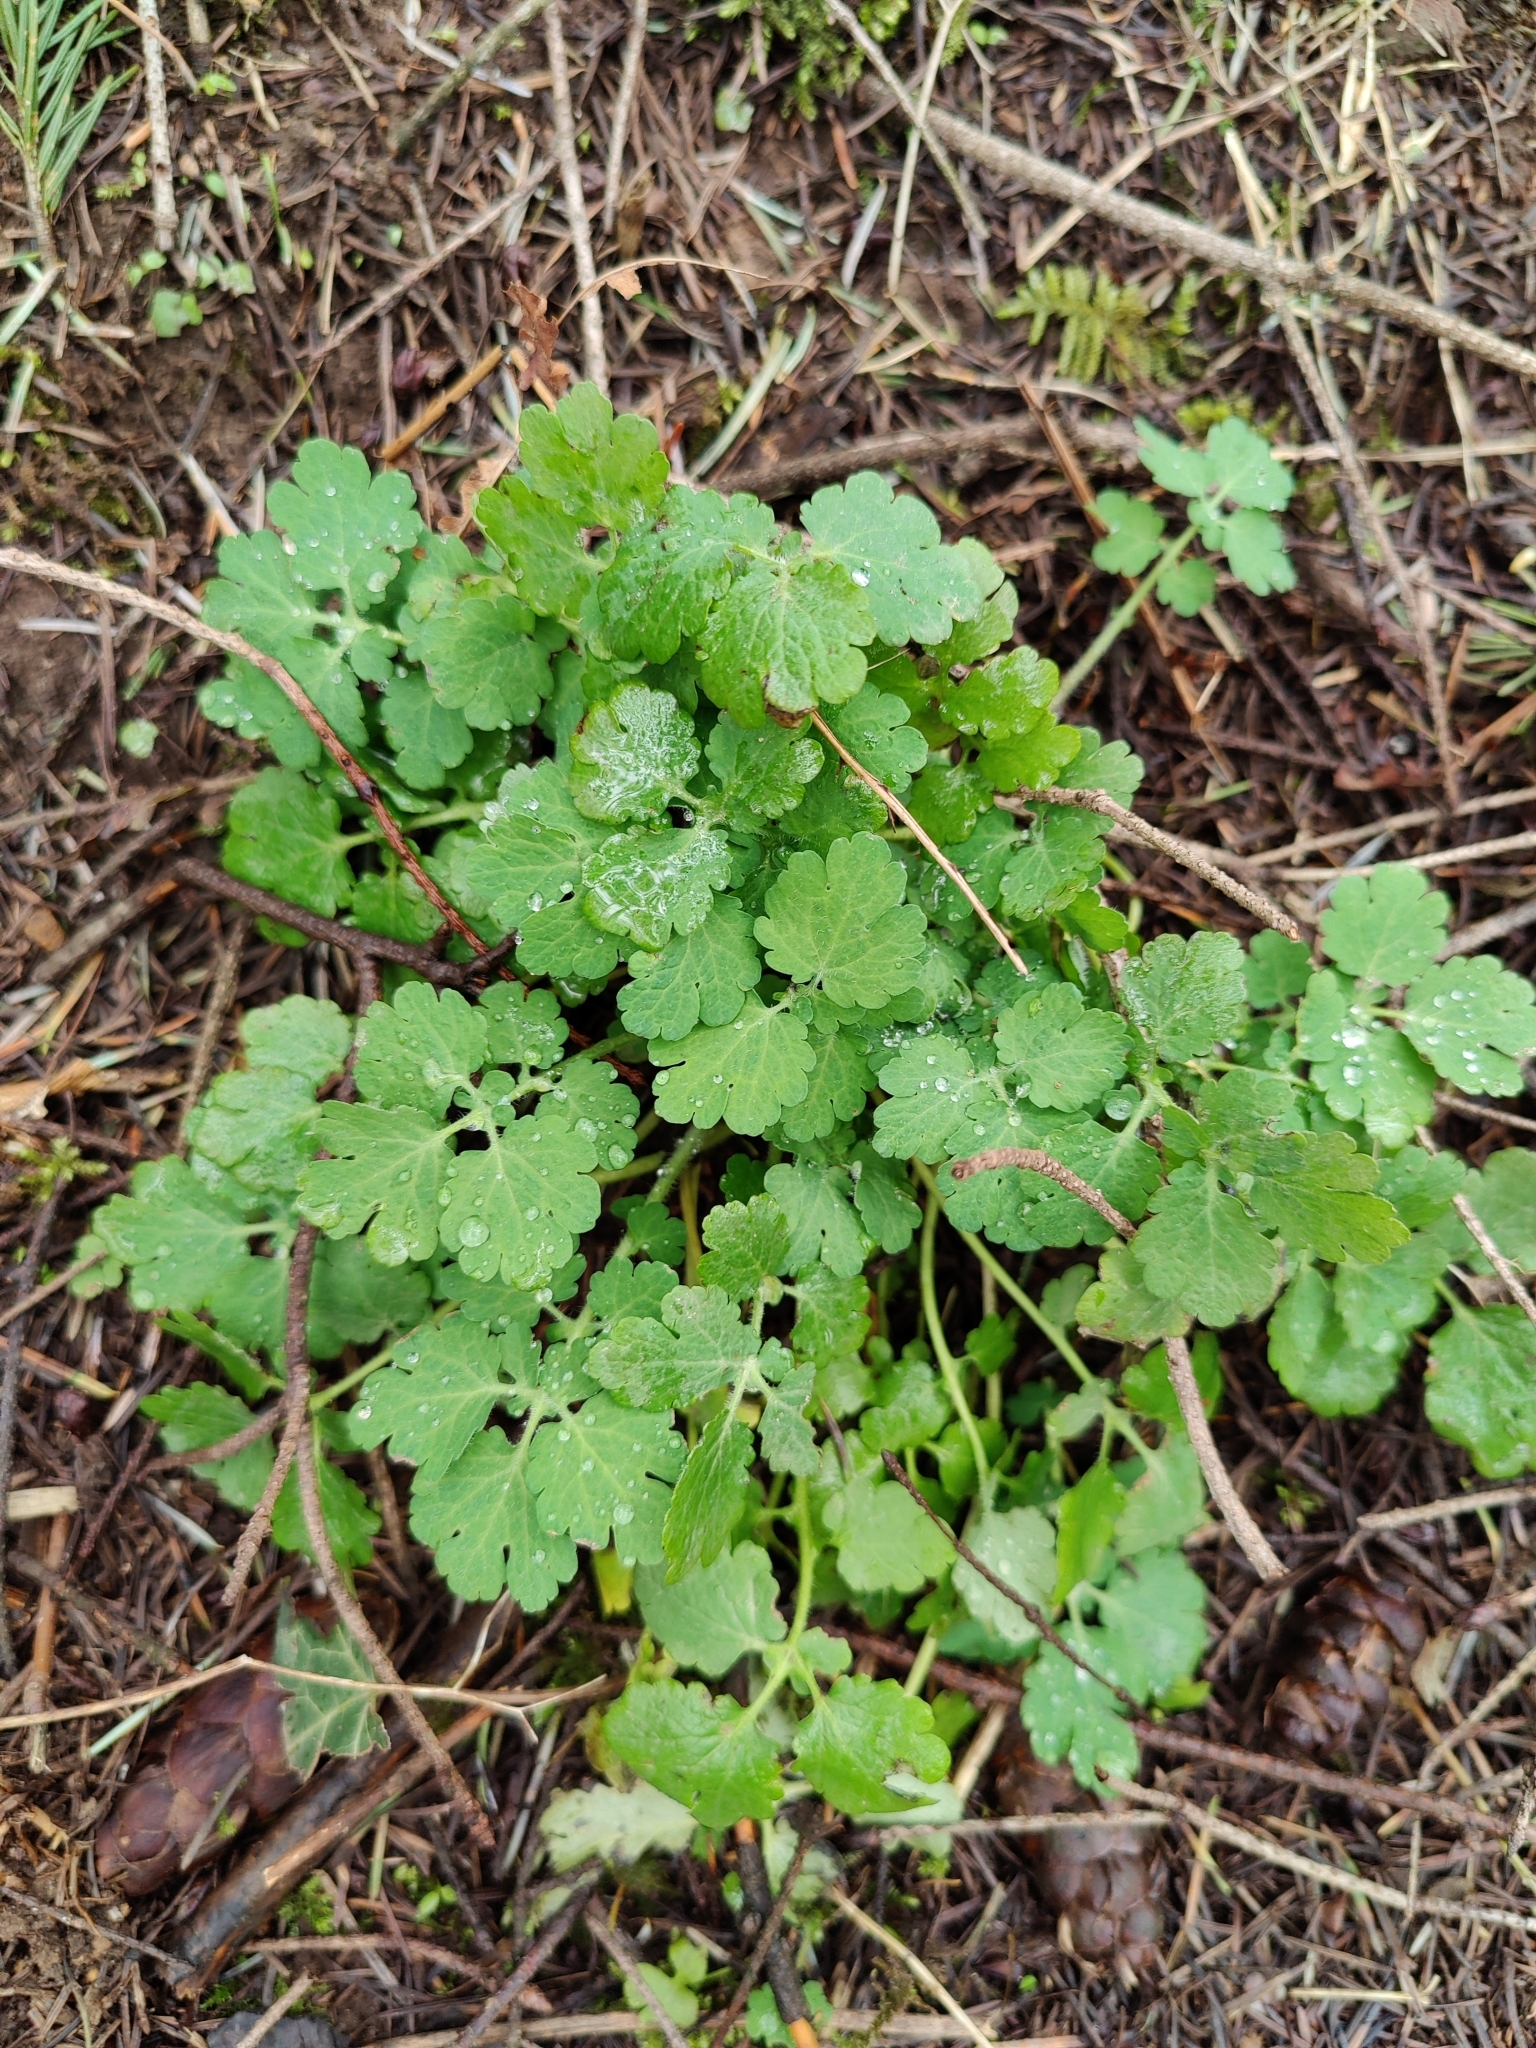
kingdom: Plantae
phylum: Tracheophyta
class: Magnoliopsida
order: Ranunculales
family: Papaveraceae
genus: Chelidonium
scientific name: Chelidonium majus
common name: Greater celandine
